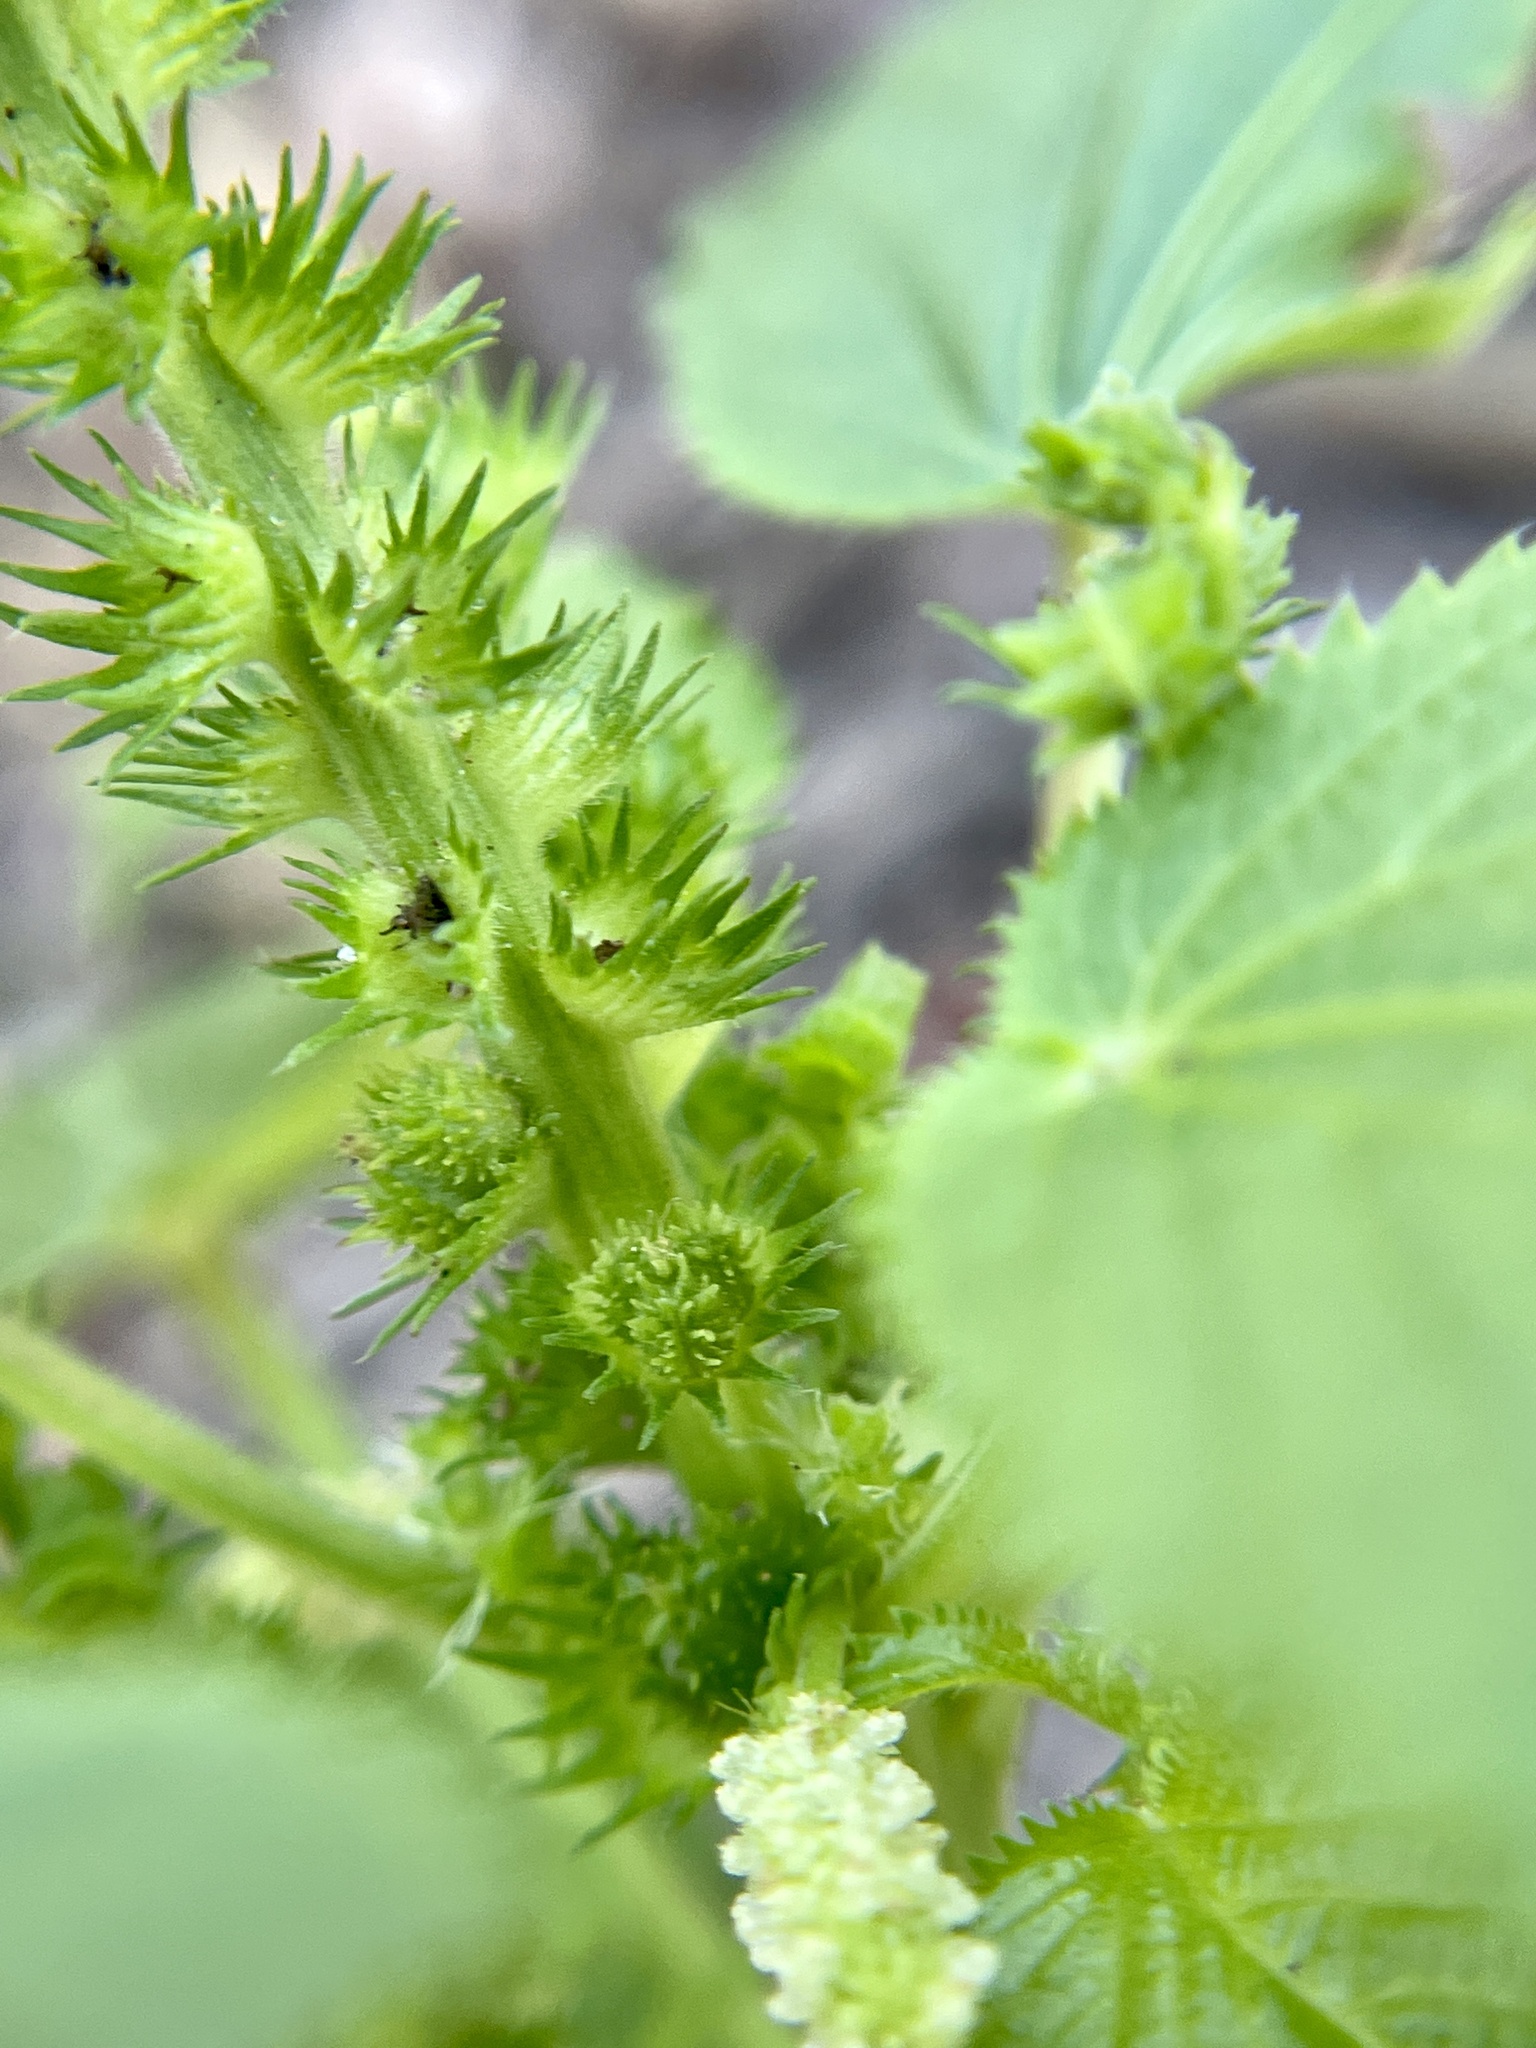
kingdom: Plantae
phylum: Tracheophyta
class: Magnoliopsida
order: Malpighiales
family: Euphorbiaceae
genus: Acalypha
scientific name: Acalypha ostryifolia
